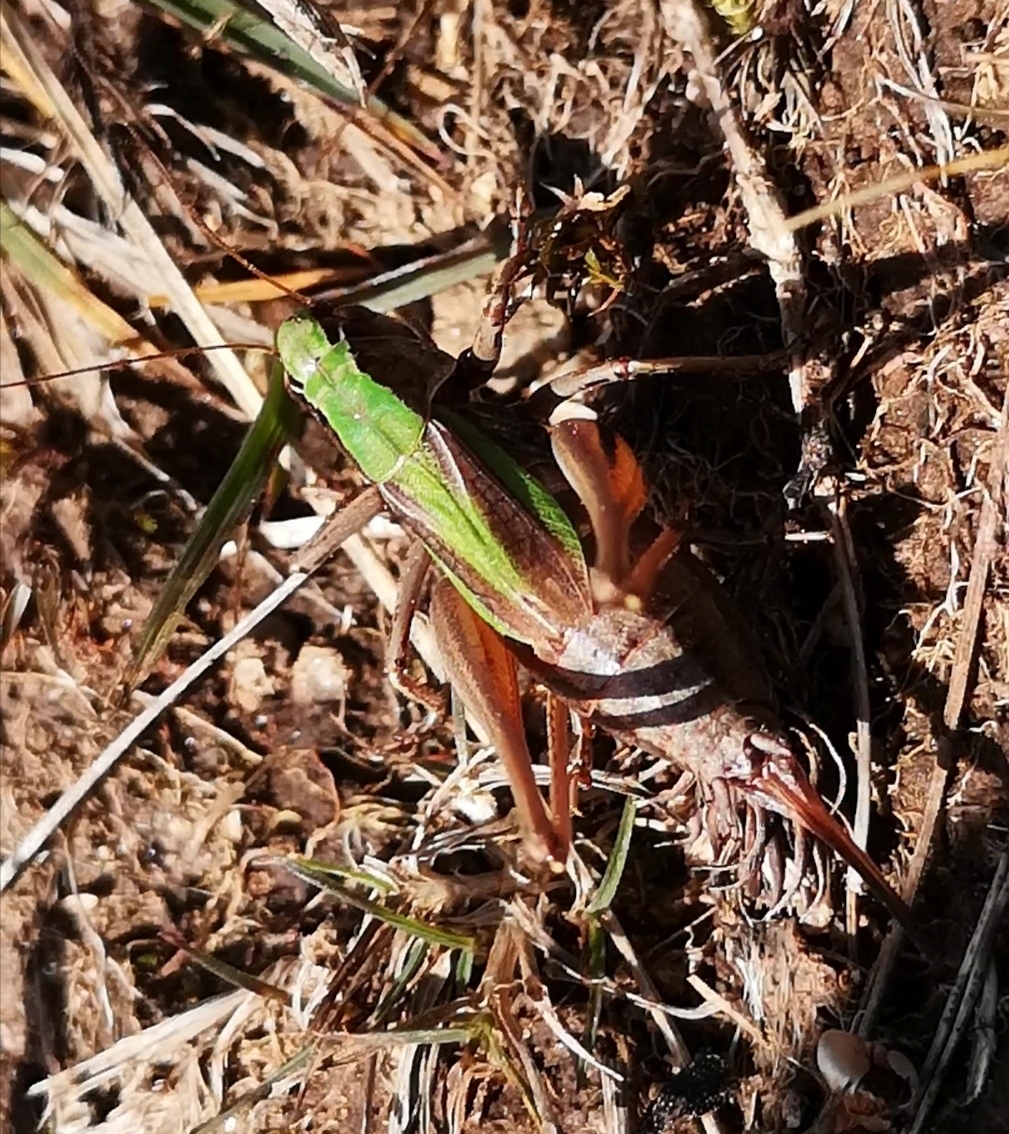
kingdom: Animalia
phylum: Arthropoda
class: Insecta
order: Orthoptera
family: Tettigoniidae
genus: Metrioptera
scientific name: Metrioptera brachyptera
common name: Bog bush-cricket
